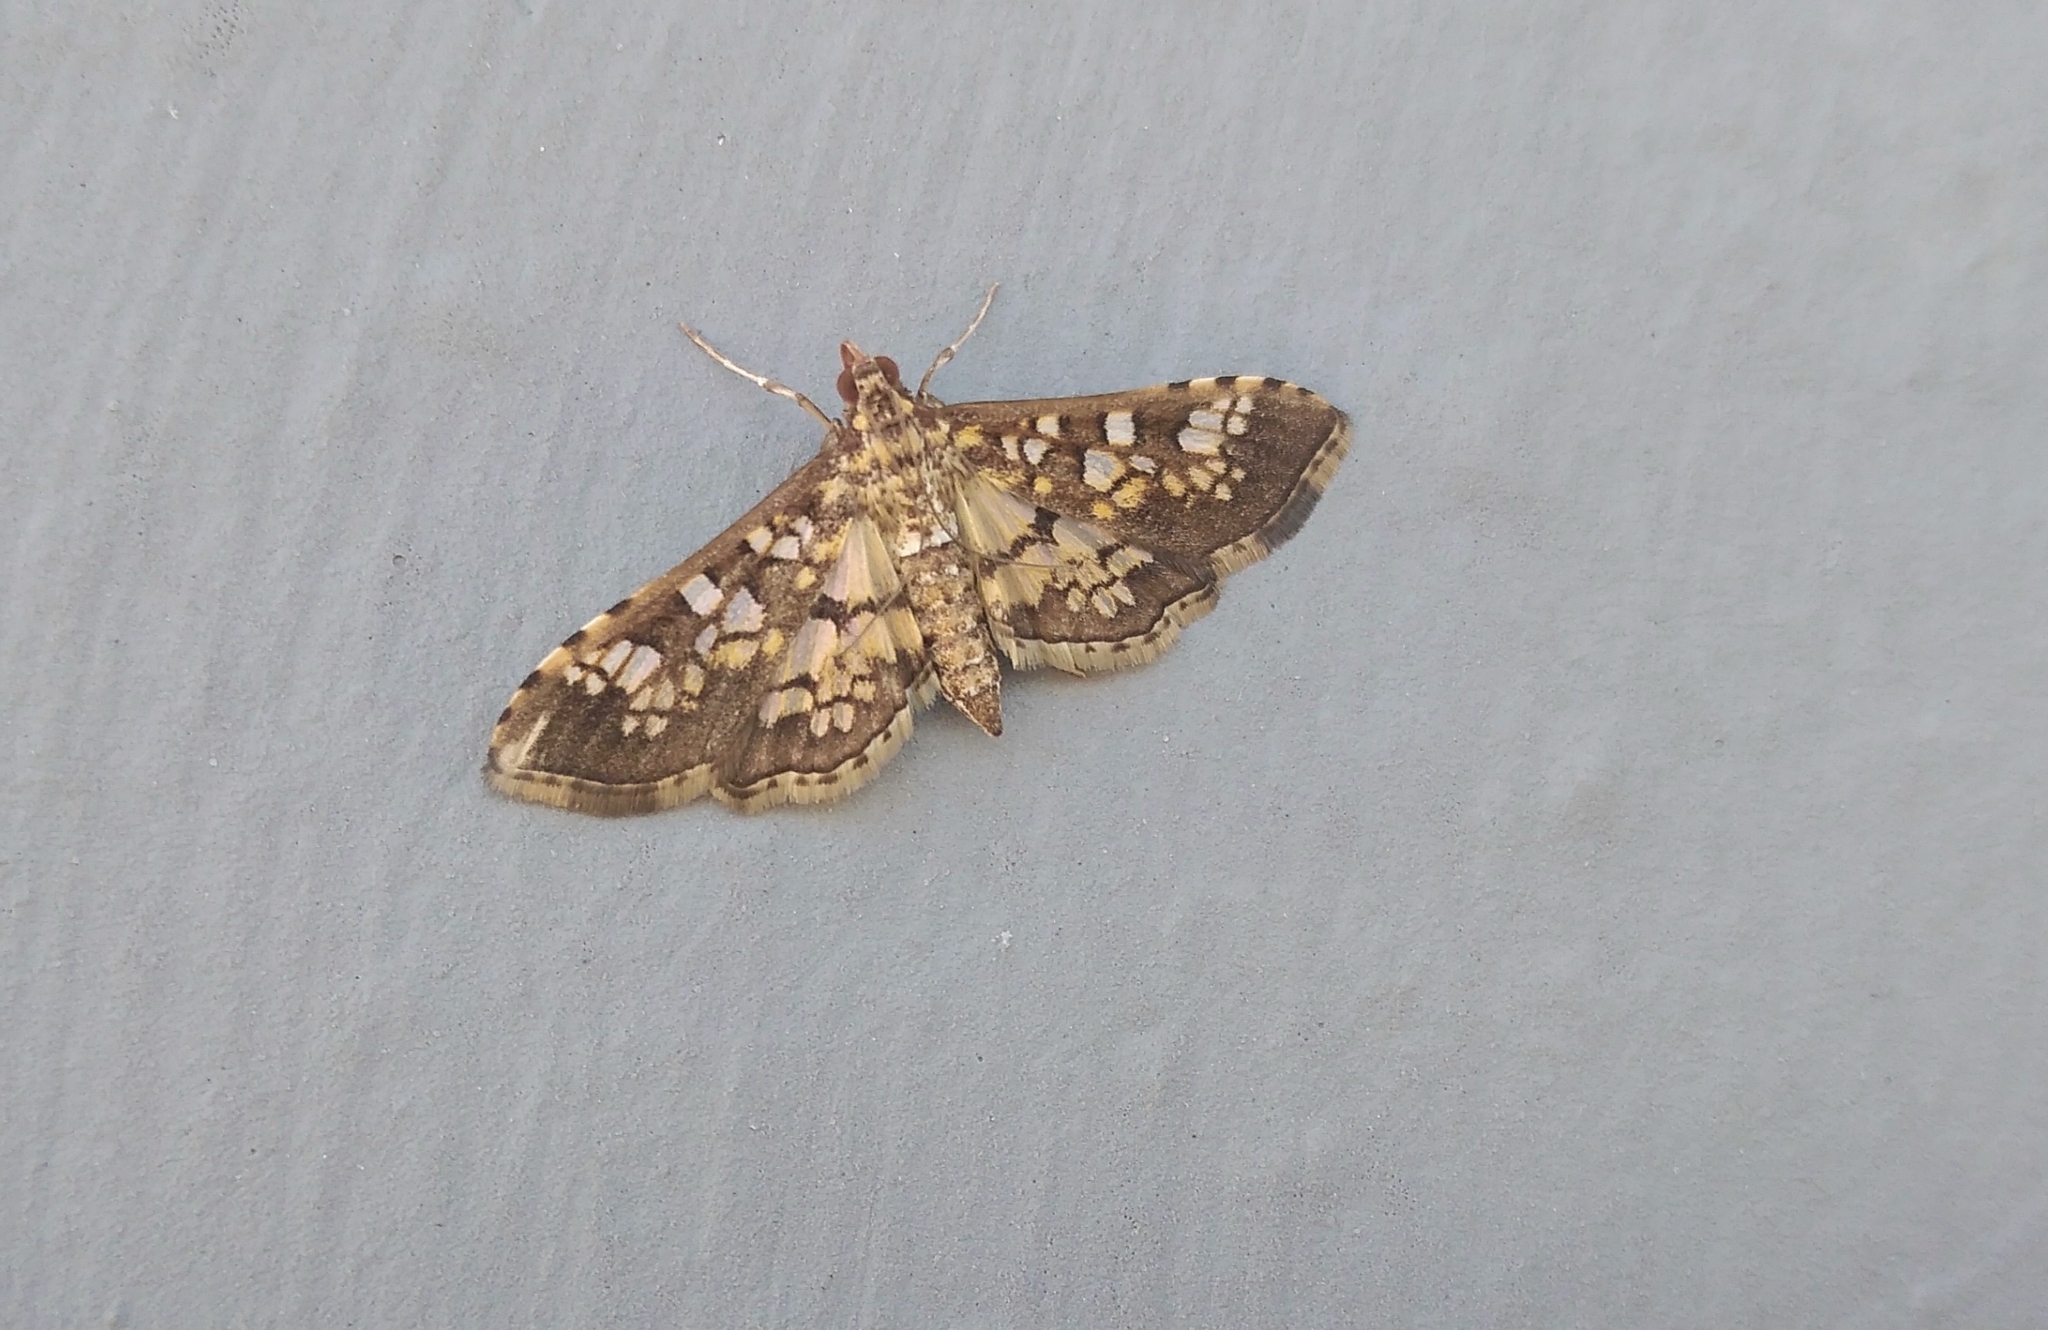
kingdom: Animalia
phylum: Arthropoda
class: Insecta
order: Lepidoptera
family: Crambidae
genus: Samea
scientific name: Samea ecclesialis
